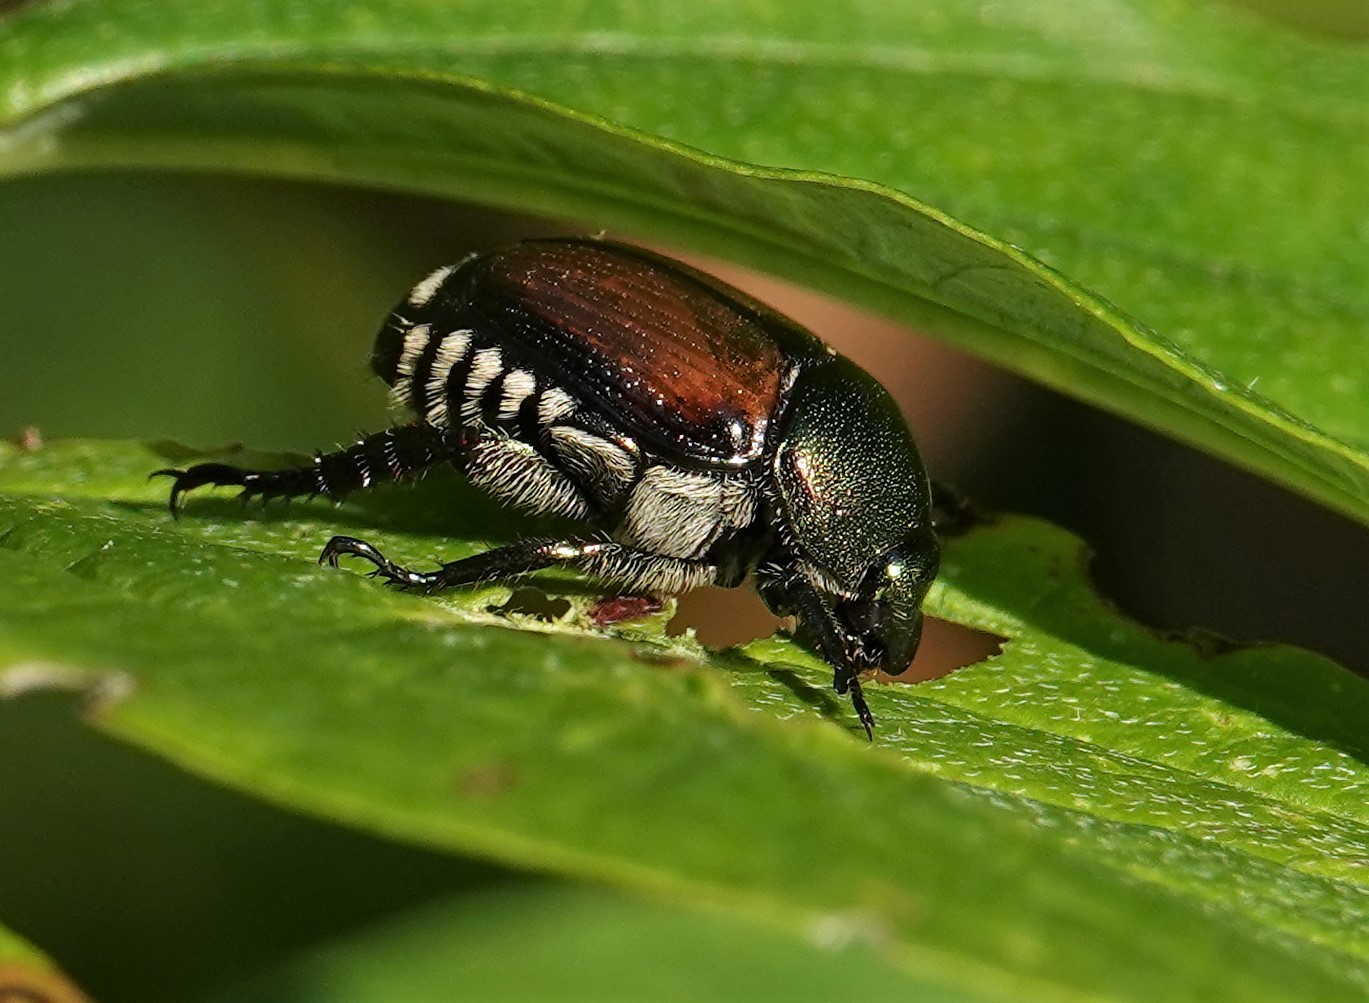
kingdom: Animalia
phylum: Arthropoda
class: Insecta
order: Coleoptera
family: Scarabaeidae
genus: Popillia
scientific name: Popillia japonica
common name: Japanese beetle
